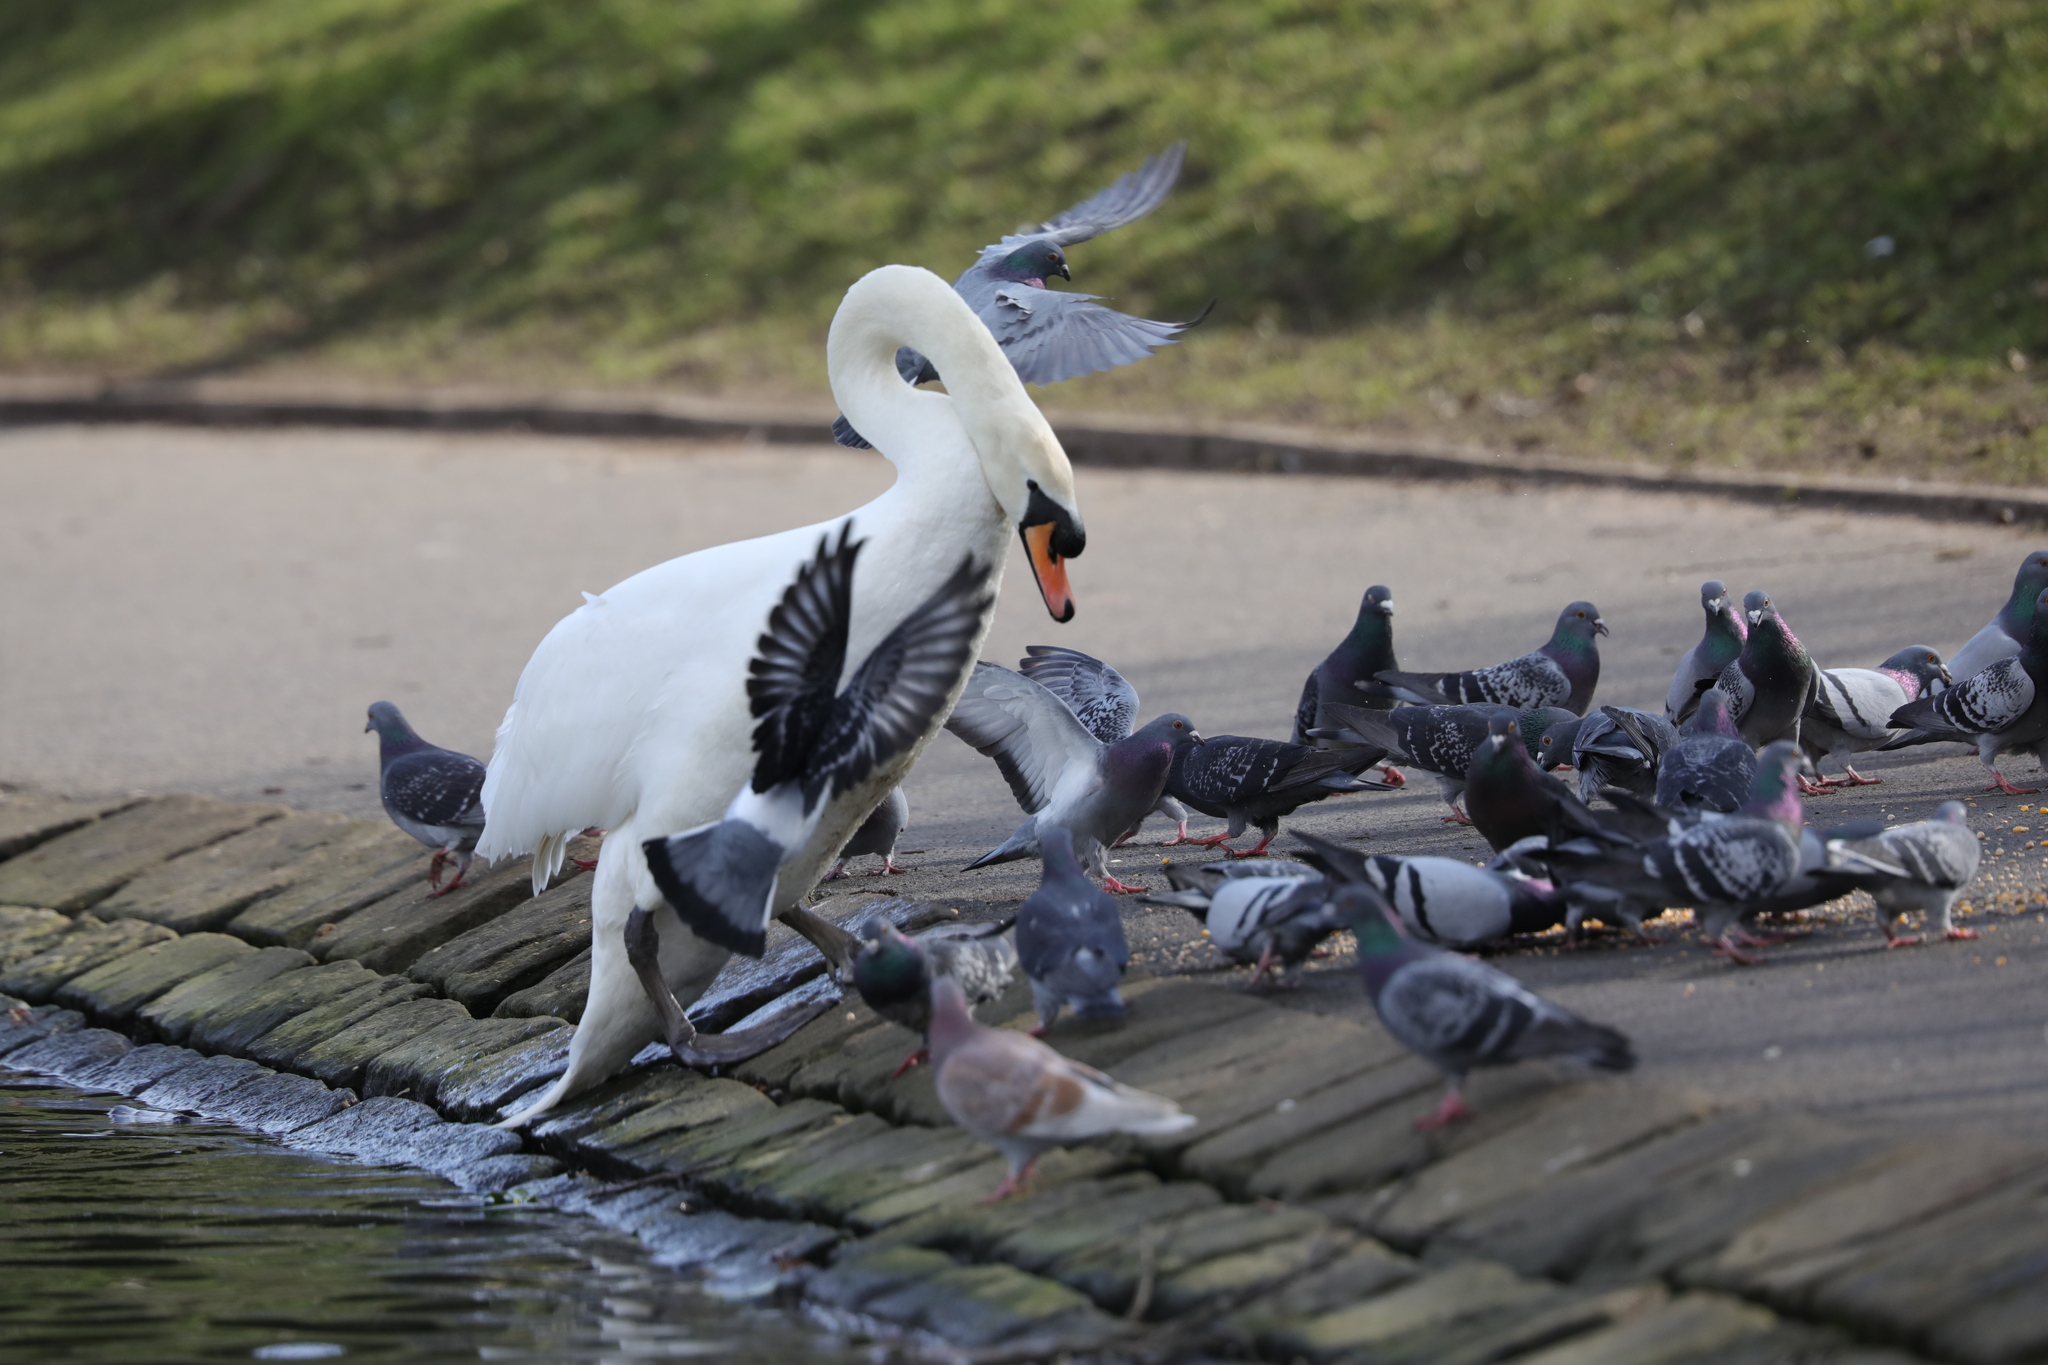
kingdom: Animalia
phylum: Chordata
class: Aves
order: Anseriformes
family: Anatidae
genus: Cygnus
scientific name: Cygnus olor
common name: Mute swan
